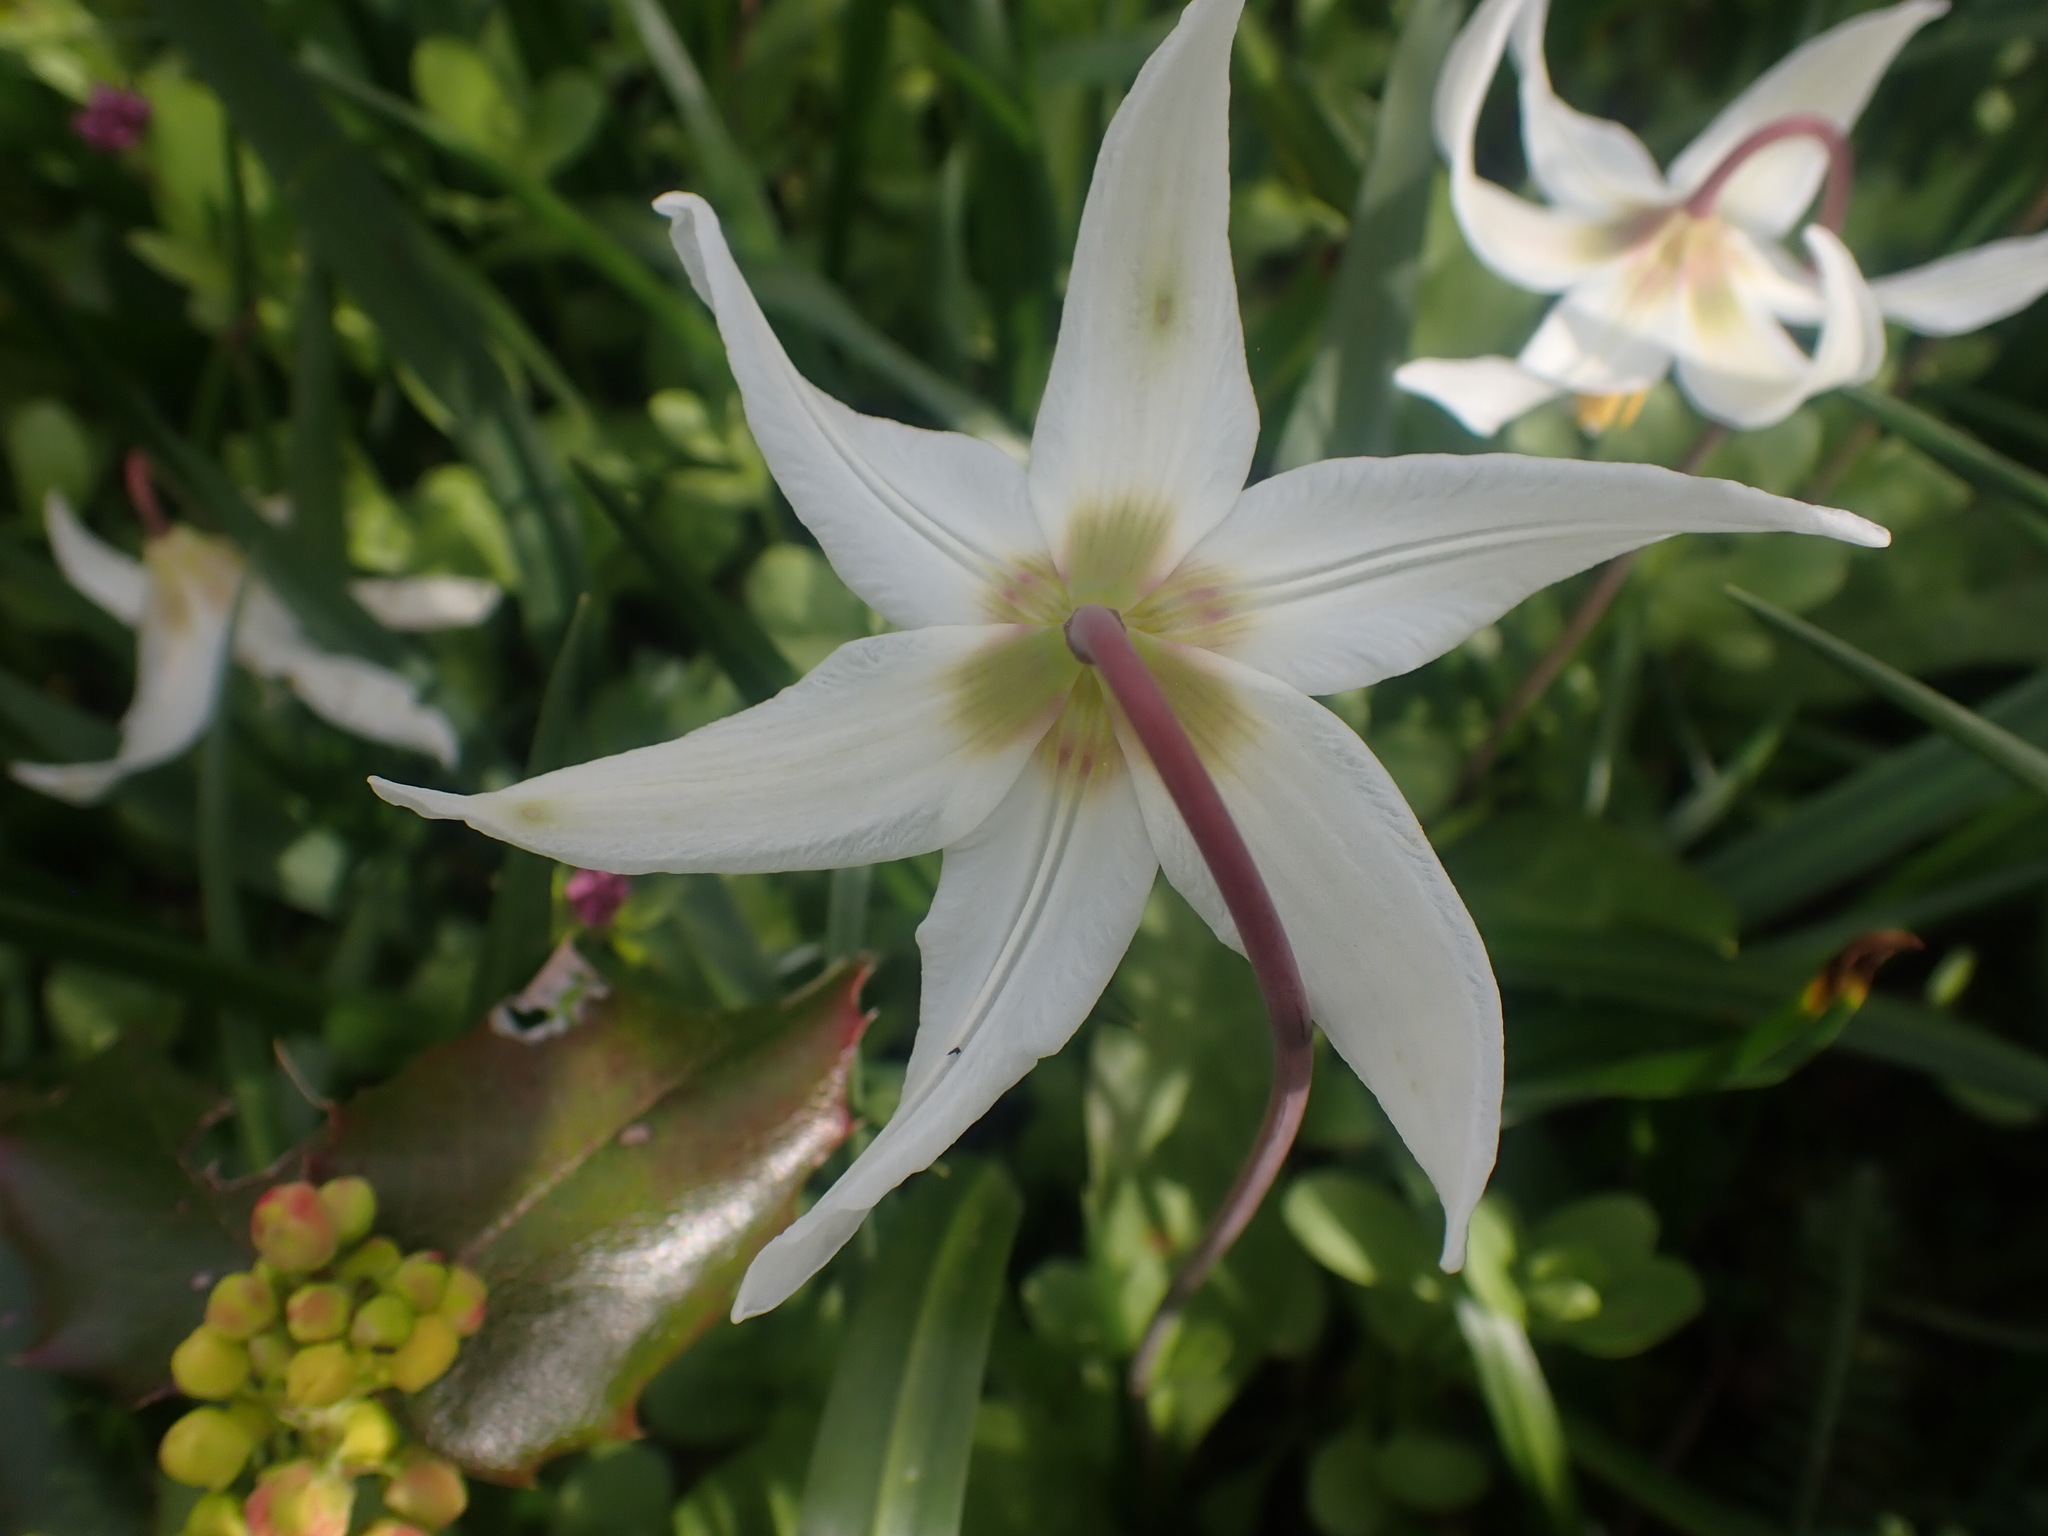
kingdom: Plantae
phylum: Tracheophyta
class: Liliopsida
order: Liliales
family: Liliaceae
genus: Erythronium
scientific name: Erythronium oregonum
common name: Giant adder's-tongue
